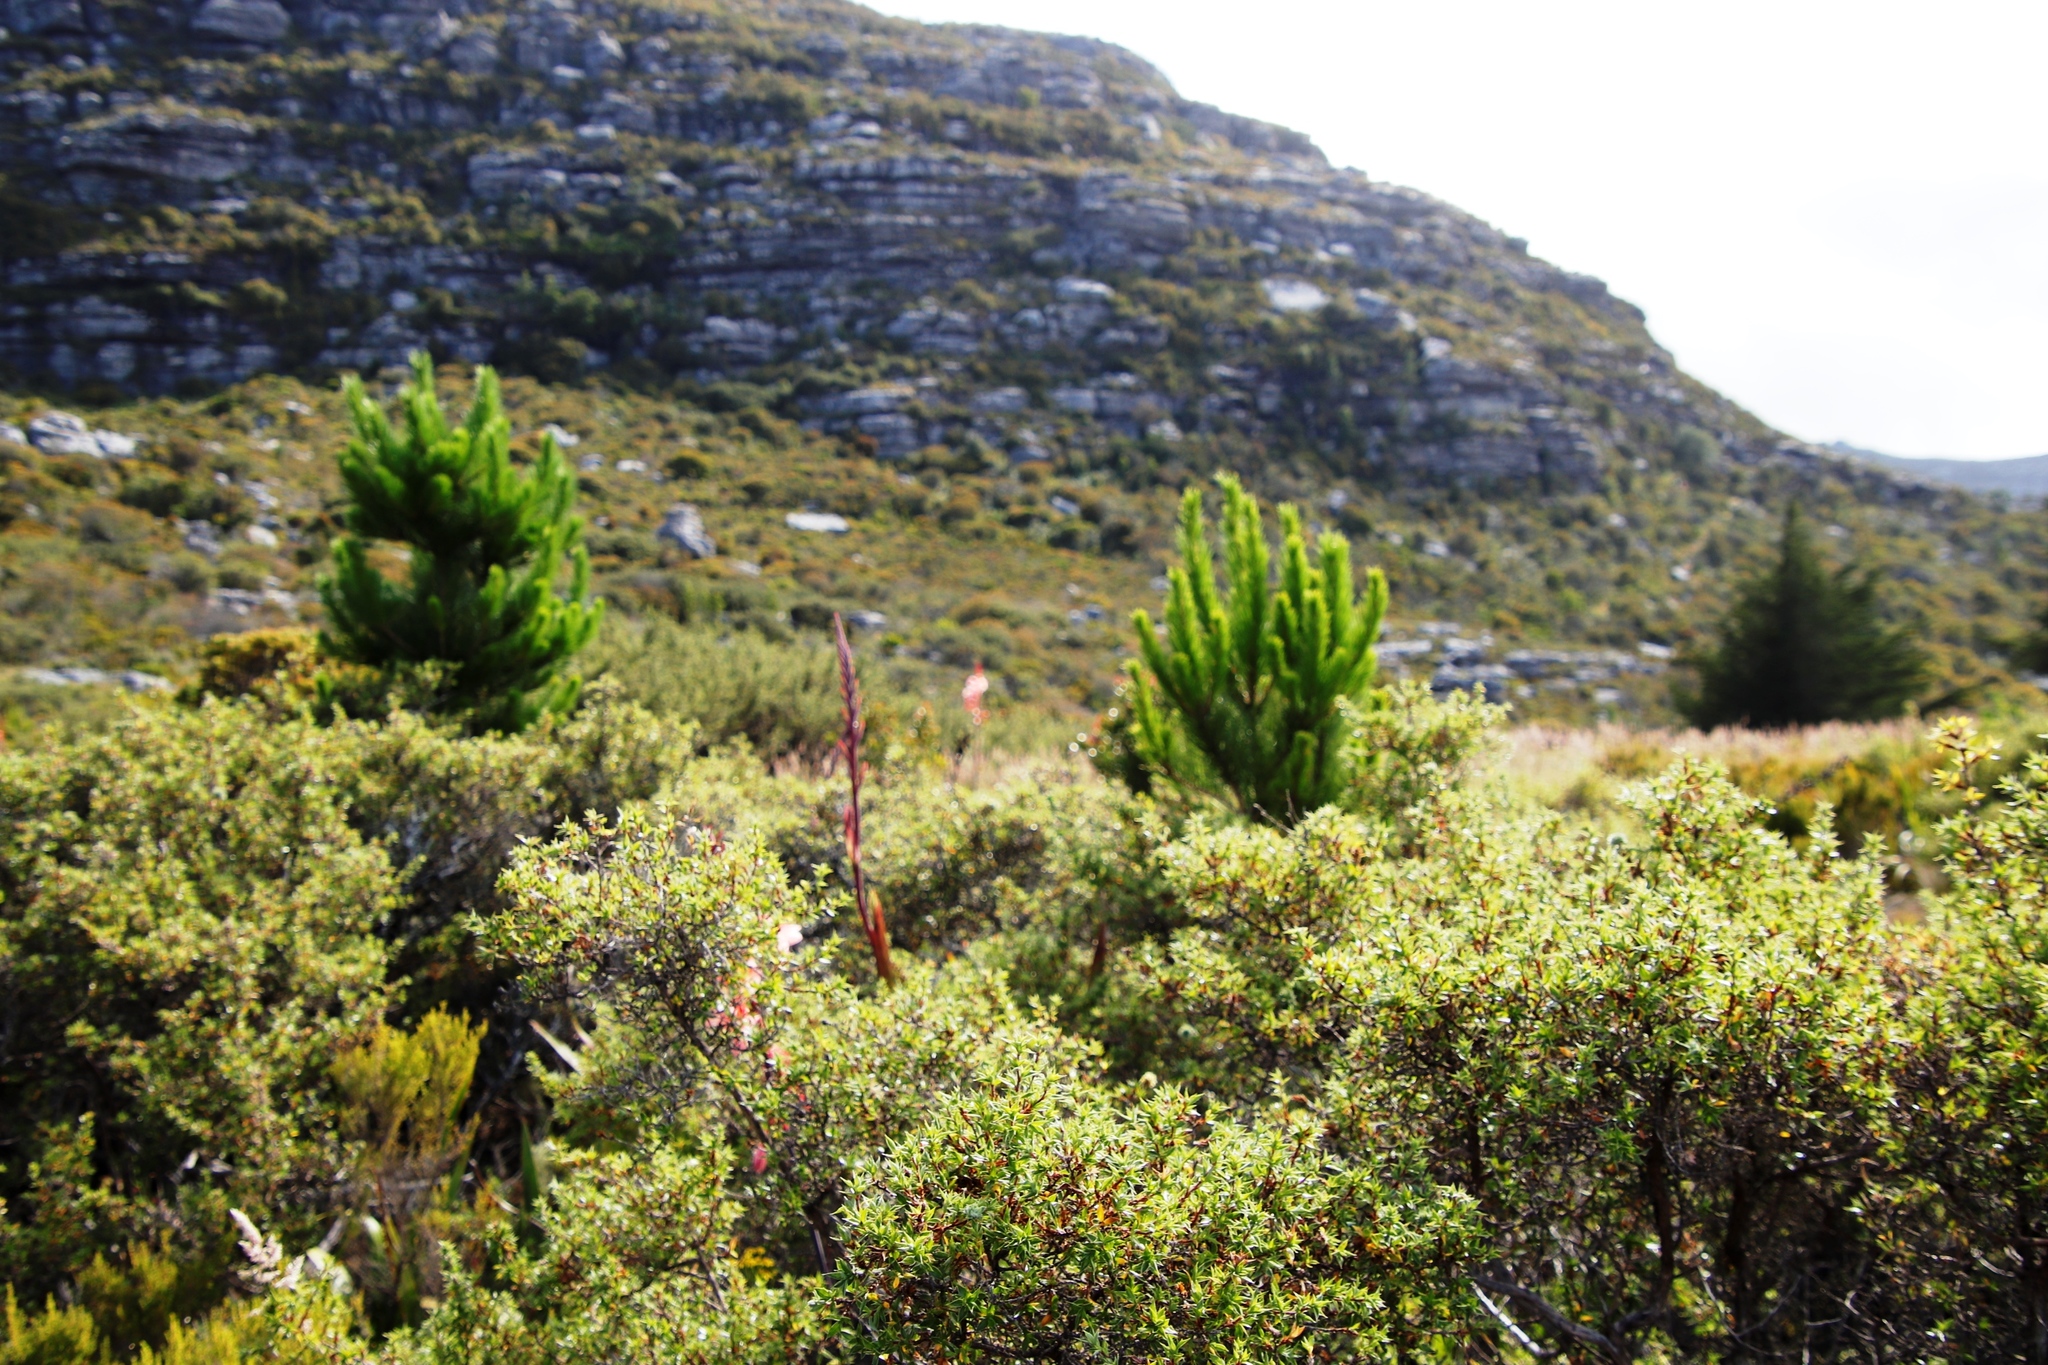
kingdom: Plantae
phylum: Tracheophyta
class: Pinopsida
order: Pinales
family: Pinaceae
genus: Pinus
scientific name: Pinus radiata
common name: Monterey pine
